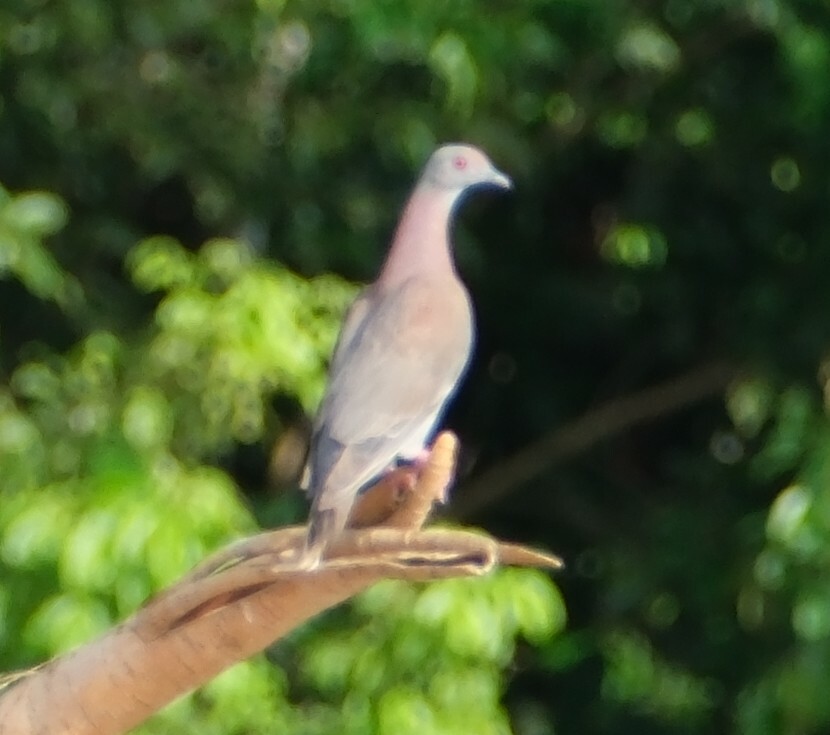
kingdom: Animalia
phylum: Chordata
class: Aves
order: Columbiformes
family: Columbidae
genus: Patagioenas
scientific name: Patagioenas cayennensis
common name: Pale-vented pigeon
